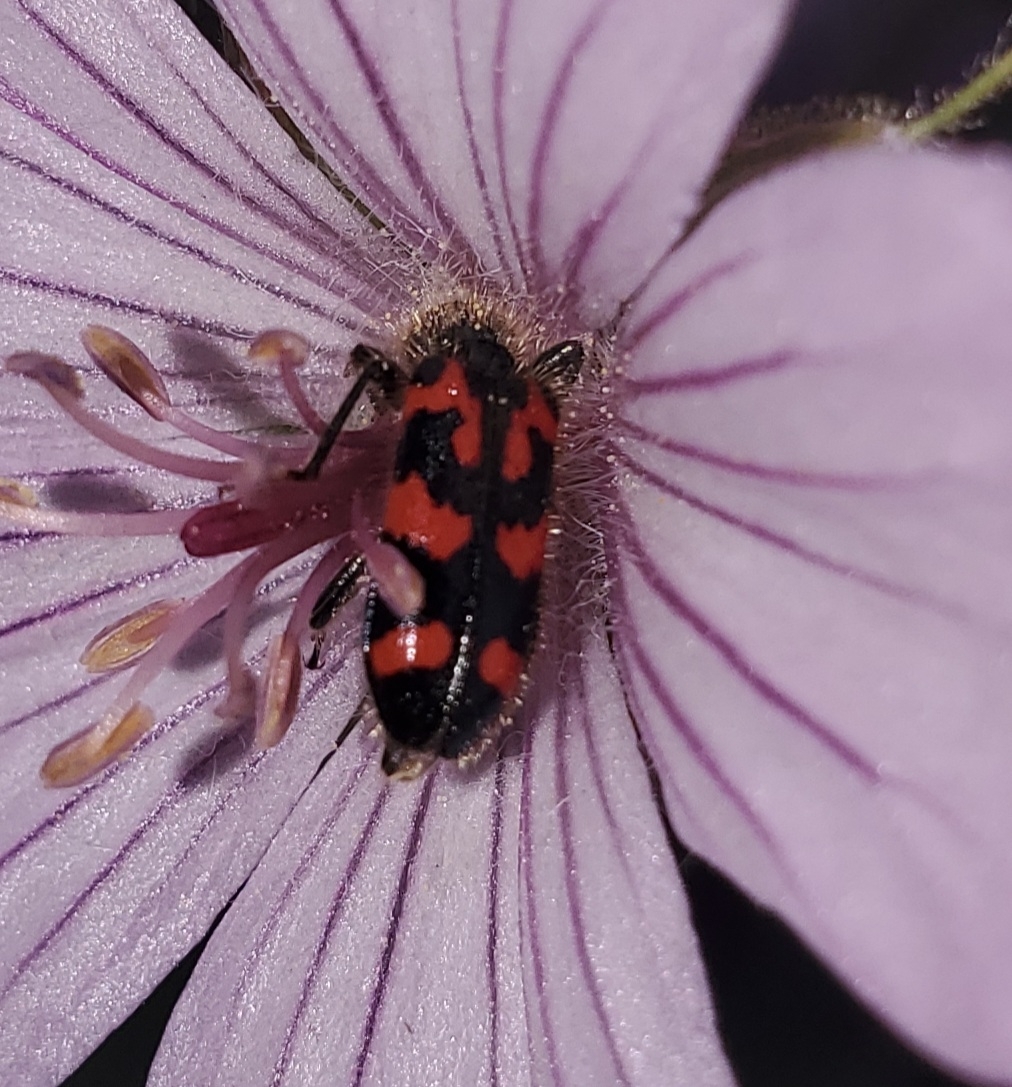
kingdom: Animalia
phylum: Arthropoda
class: Insecta
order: Coleoptera
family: Cleridae
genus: Trichodes
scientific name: Trichodes ornatus
